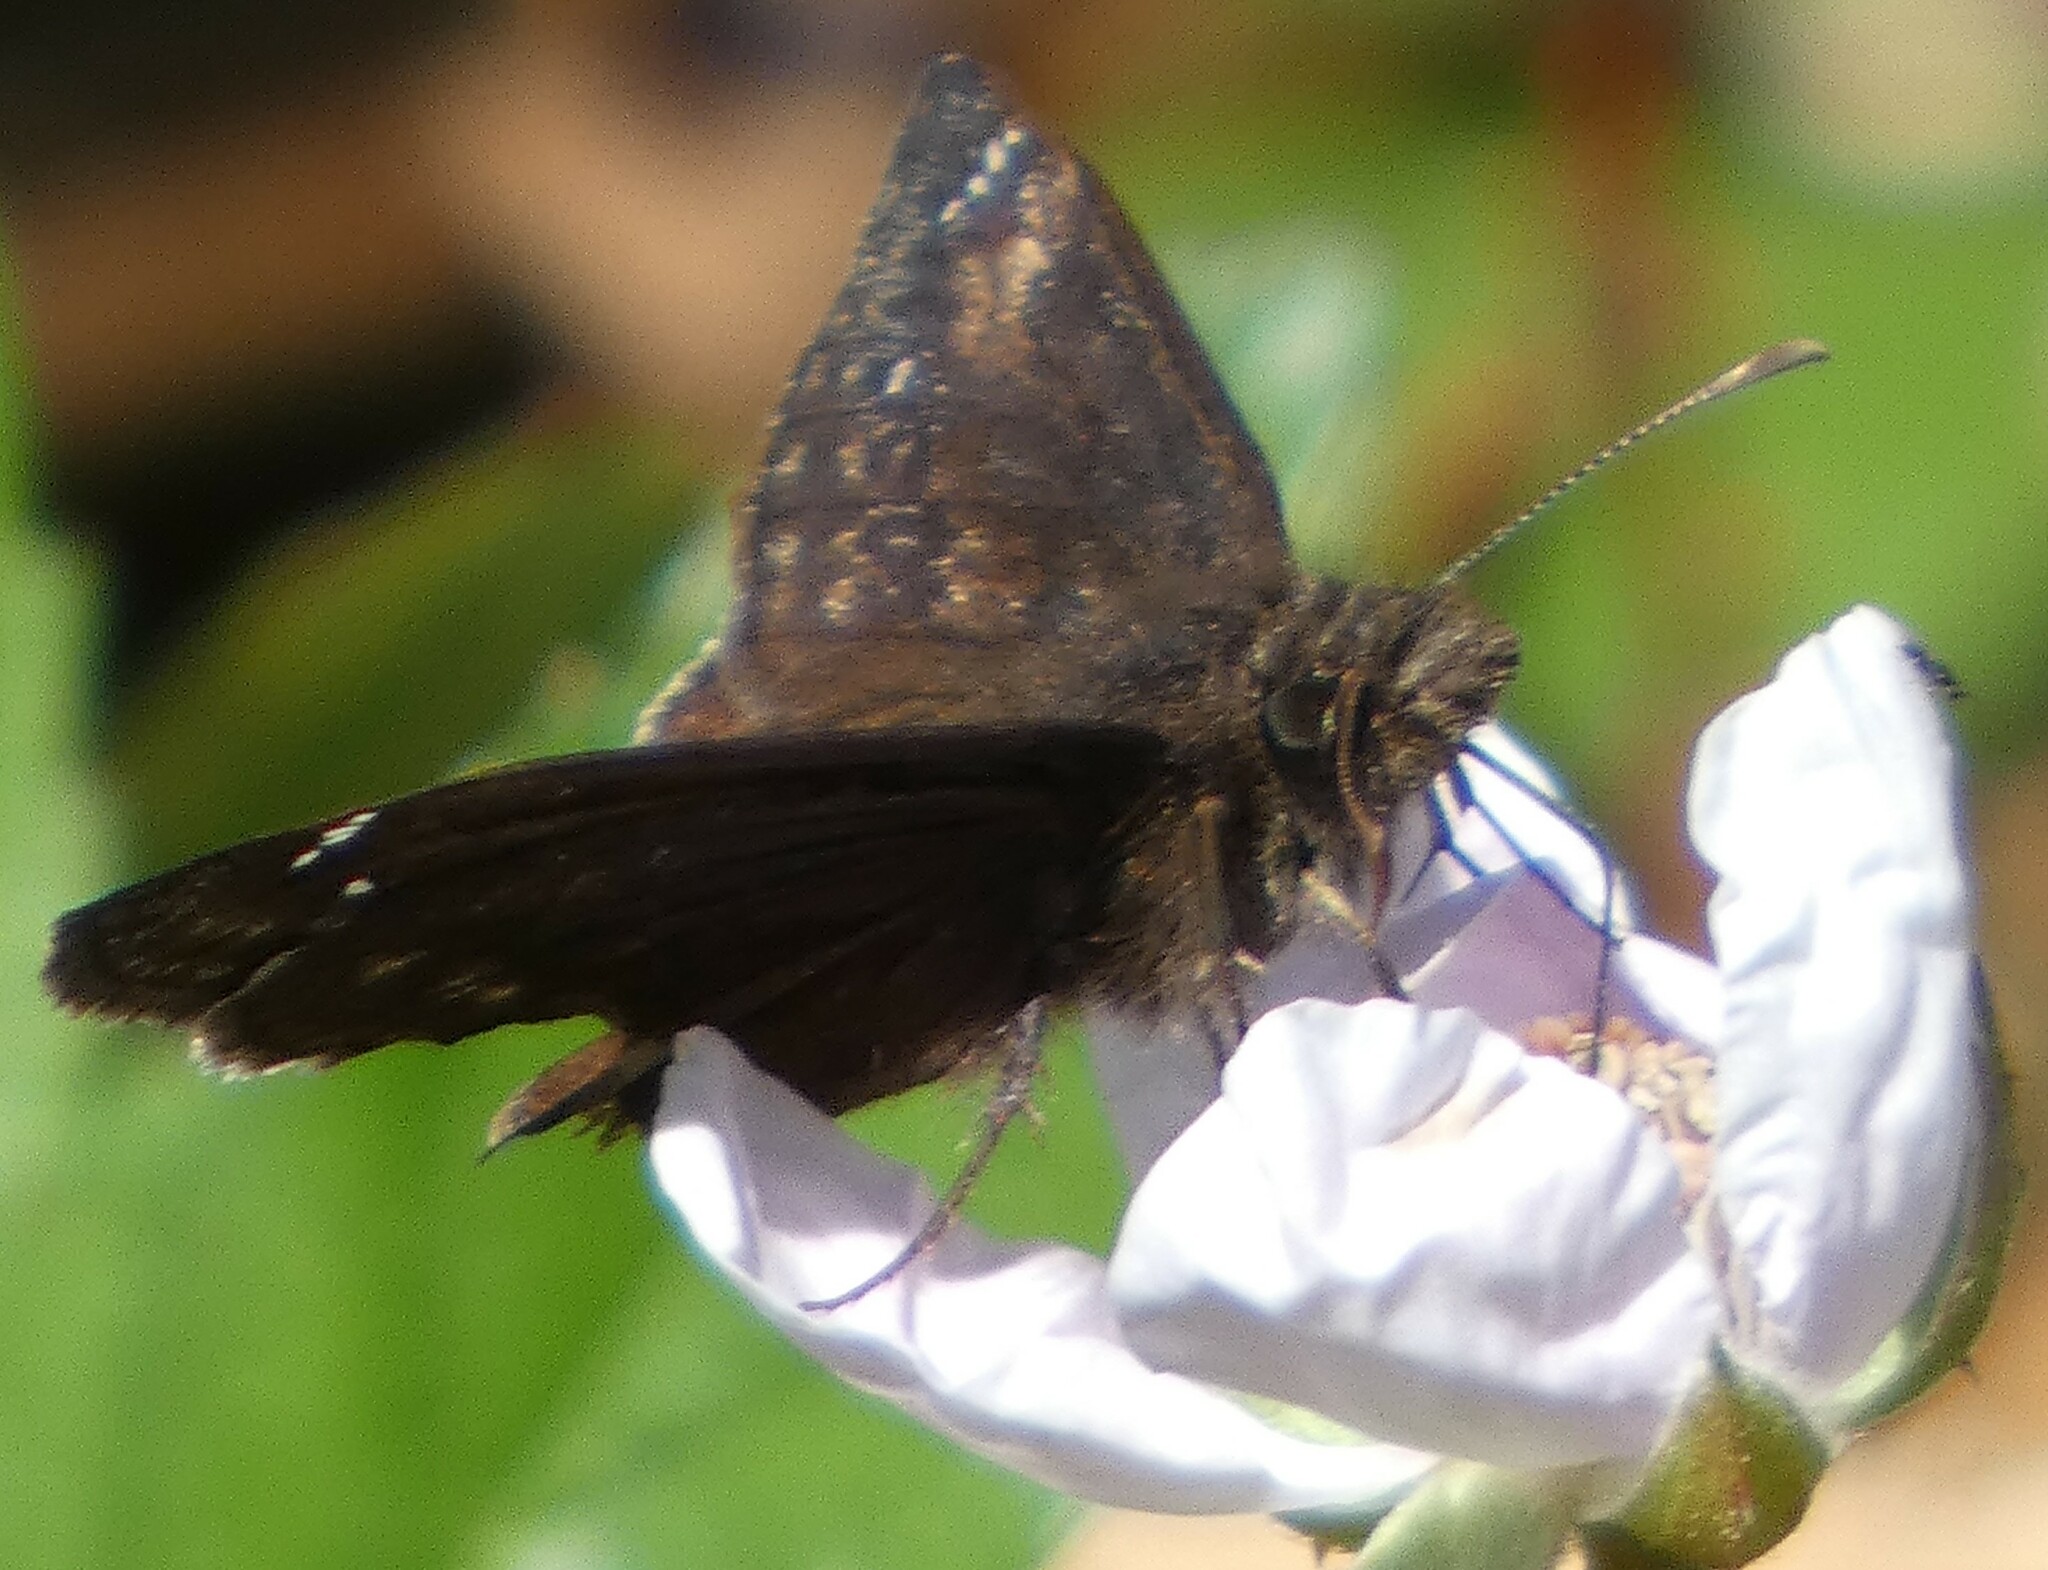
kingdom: Animalia
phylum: Arthropoda
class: Insecta
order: Lepidoptera
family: Hesperiidae
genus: Erynnis
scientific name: Erynnis zarucco
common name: Zarucco duskywing
